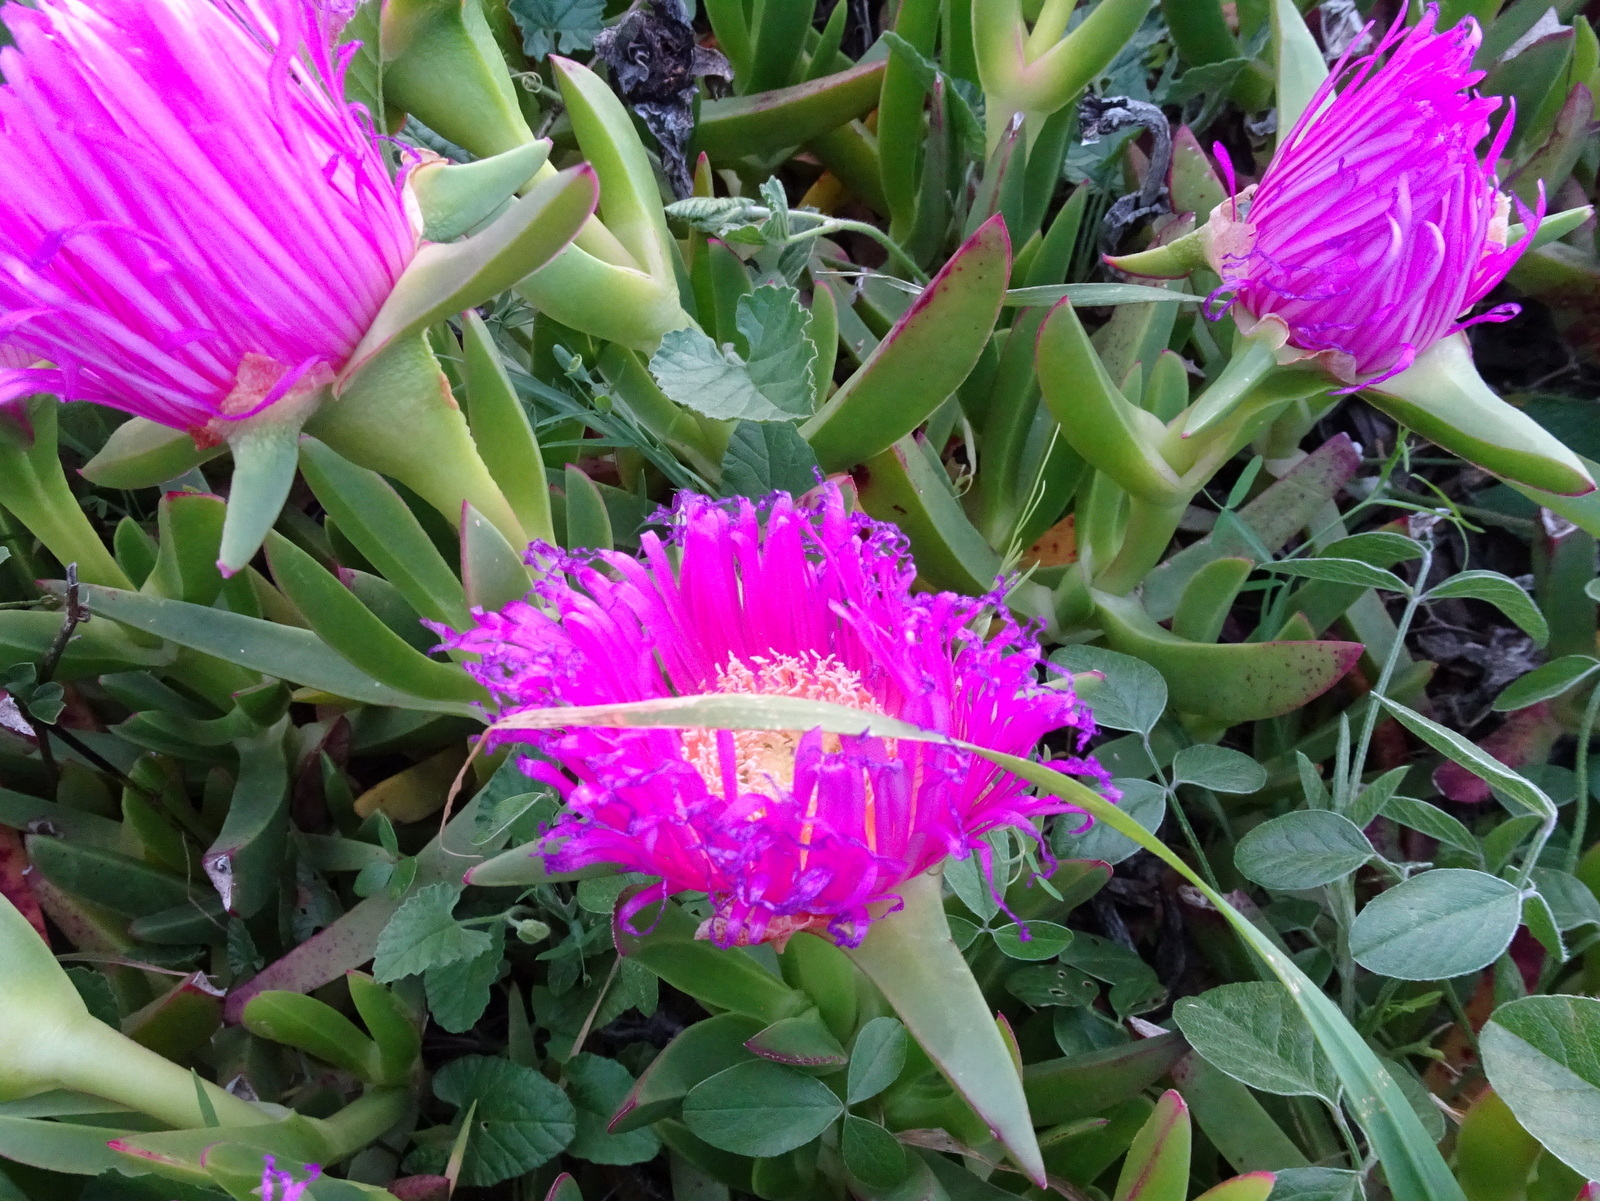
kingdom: Plantae
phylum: Tracheophyta
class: Magnoliopsida
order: Caryophyllales
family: Aizoaceae
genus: Carpobrotus
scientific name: Carpobrotus acinaciformis
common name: Sally-my-handsome
